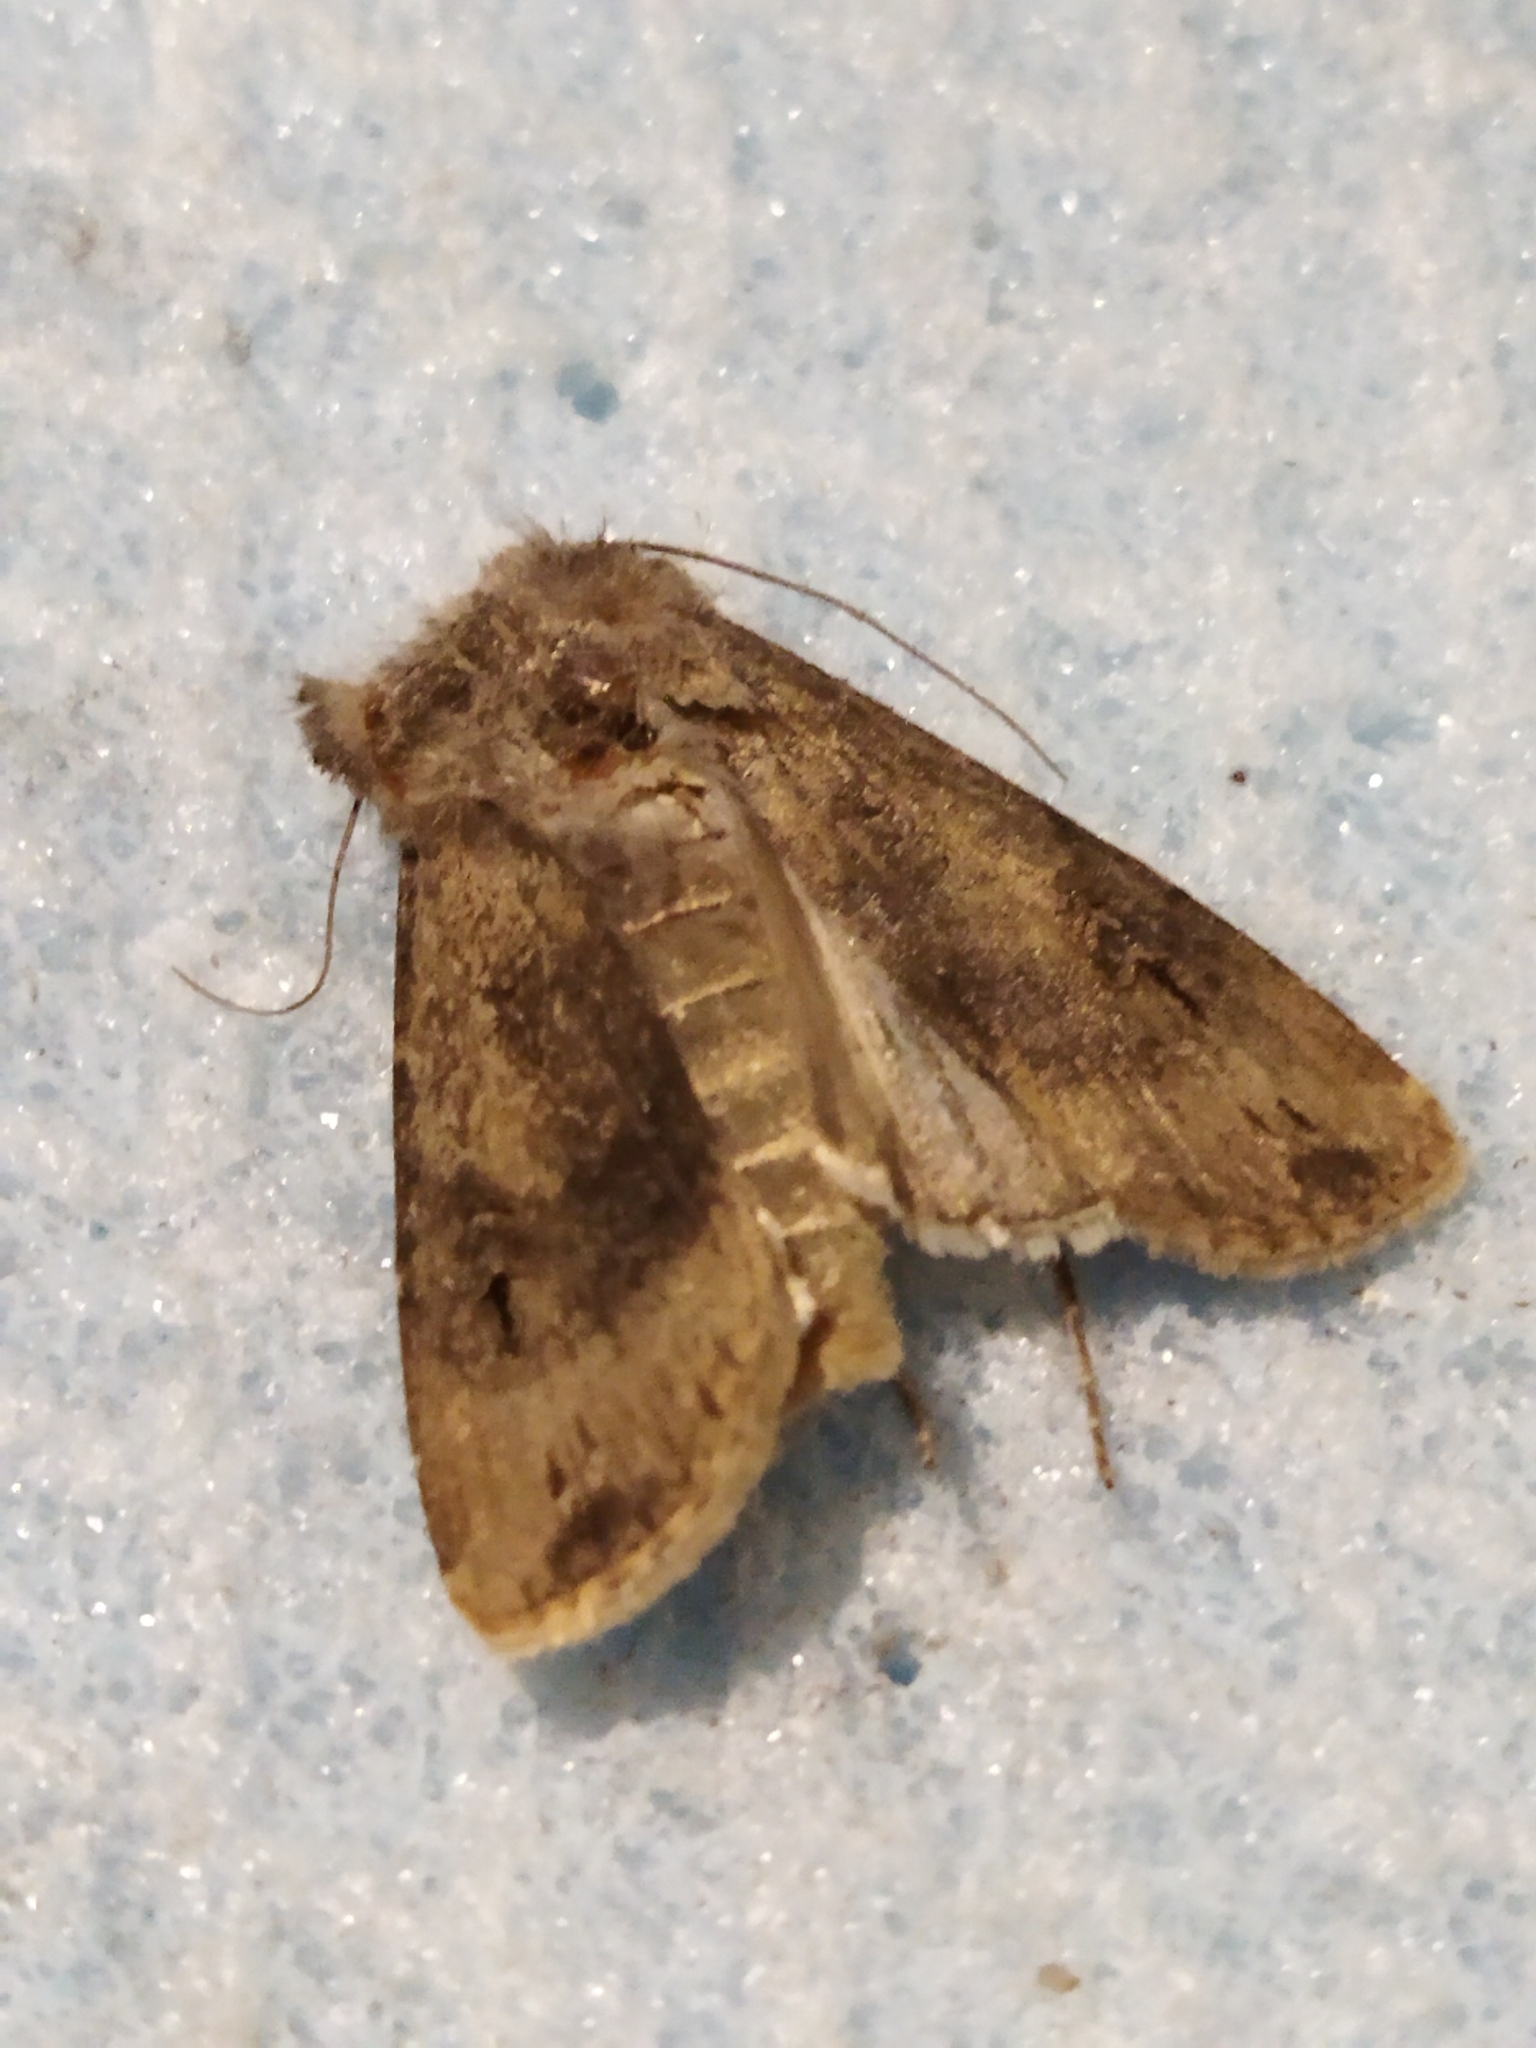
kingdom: Animalia
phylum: Arthropoda
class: Insecta
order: Lepidoptera
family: Noctuidae
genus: Agrotis
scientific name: Agrotis ipsilon
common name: Dark sword-grass
